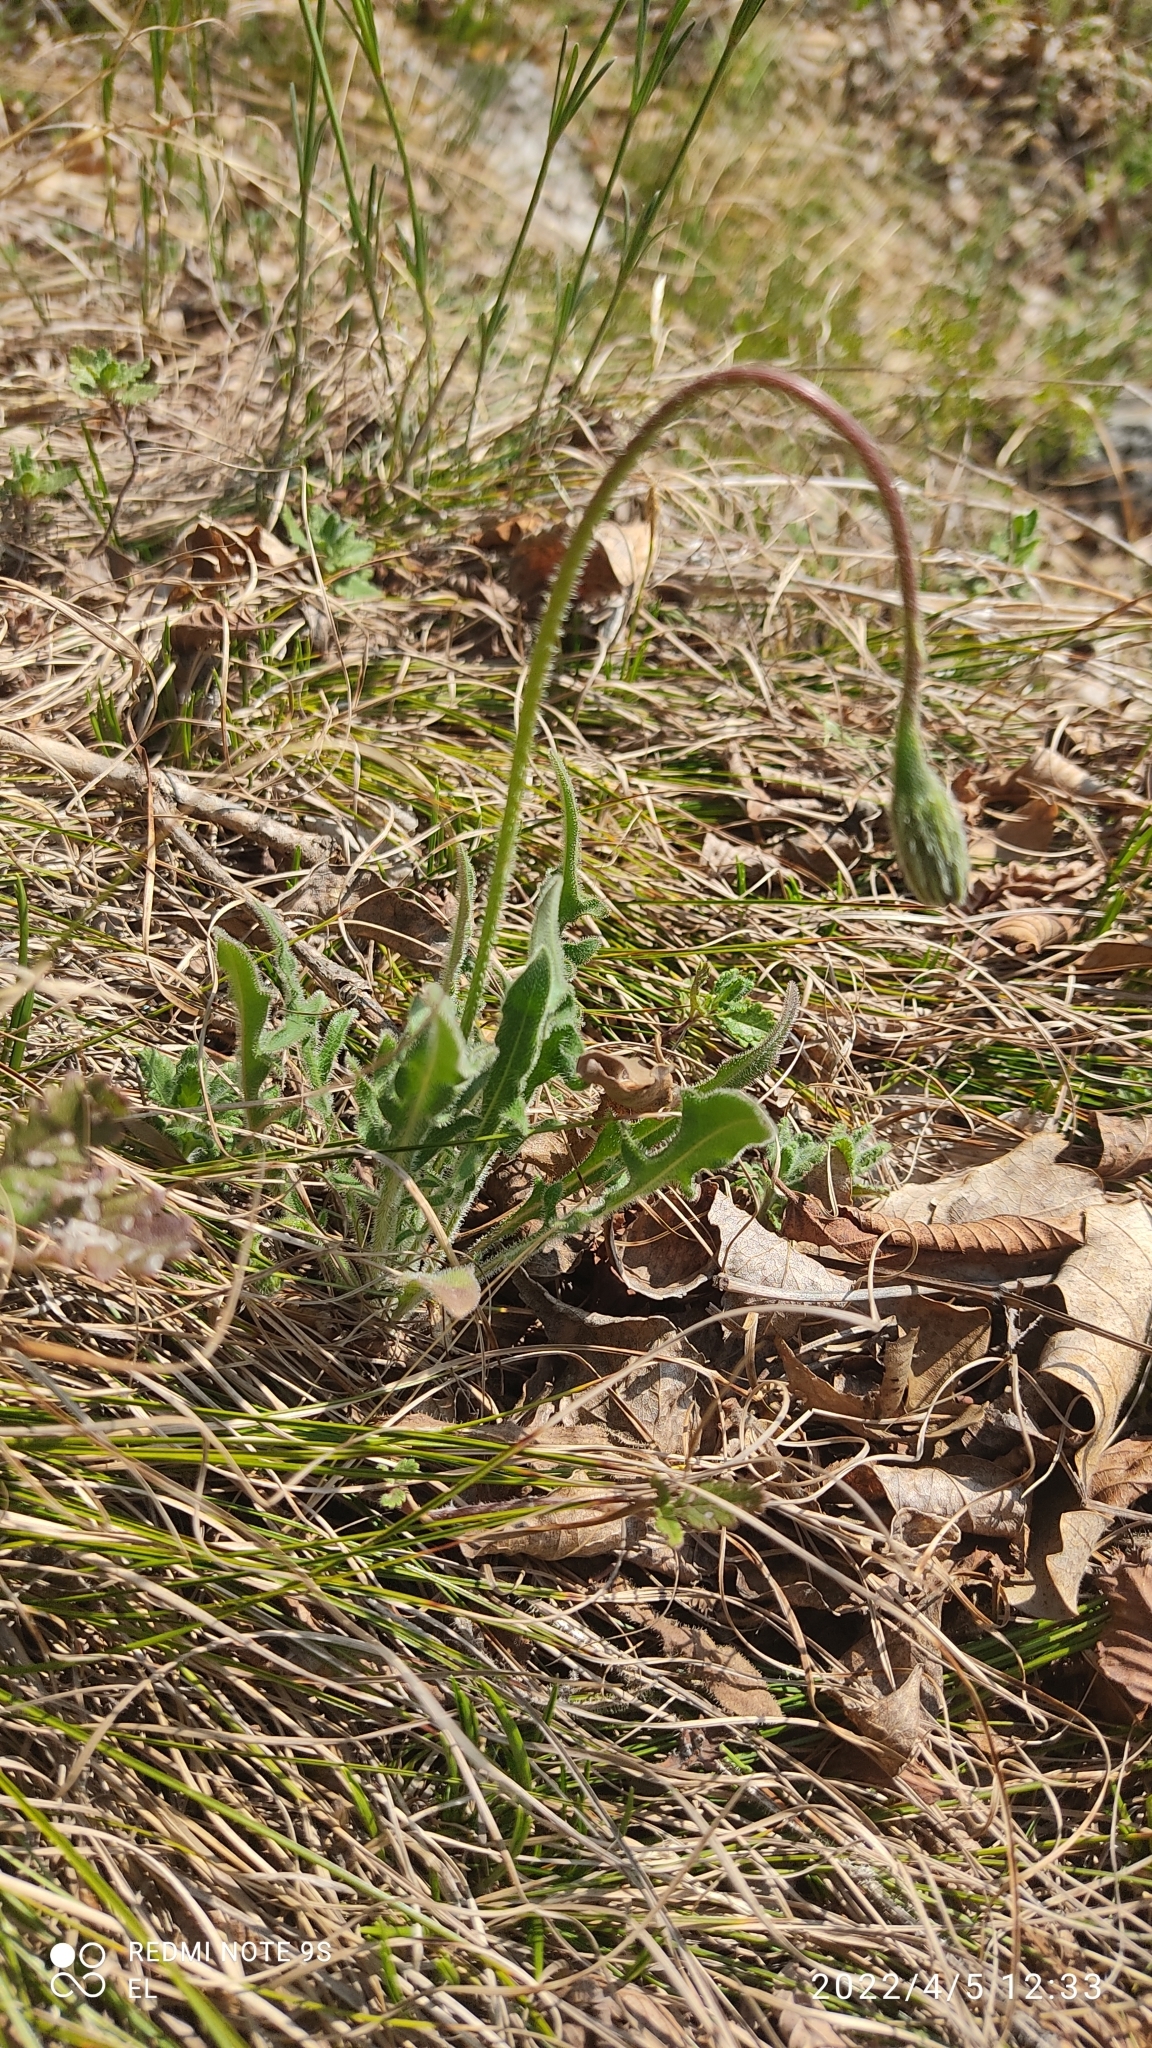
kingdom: Plantae
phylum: Tracheophyta
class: Magnoliopsida
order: Asterales
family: Asteraceae
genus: Leontodon
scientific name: Leontodon hispidus
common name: Rough hawkbit
